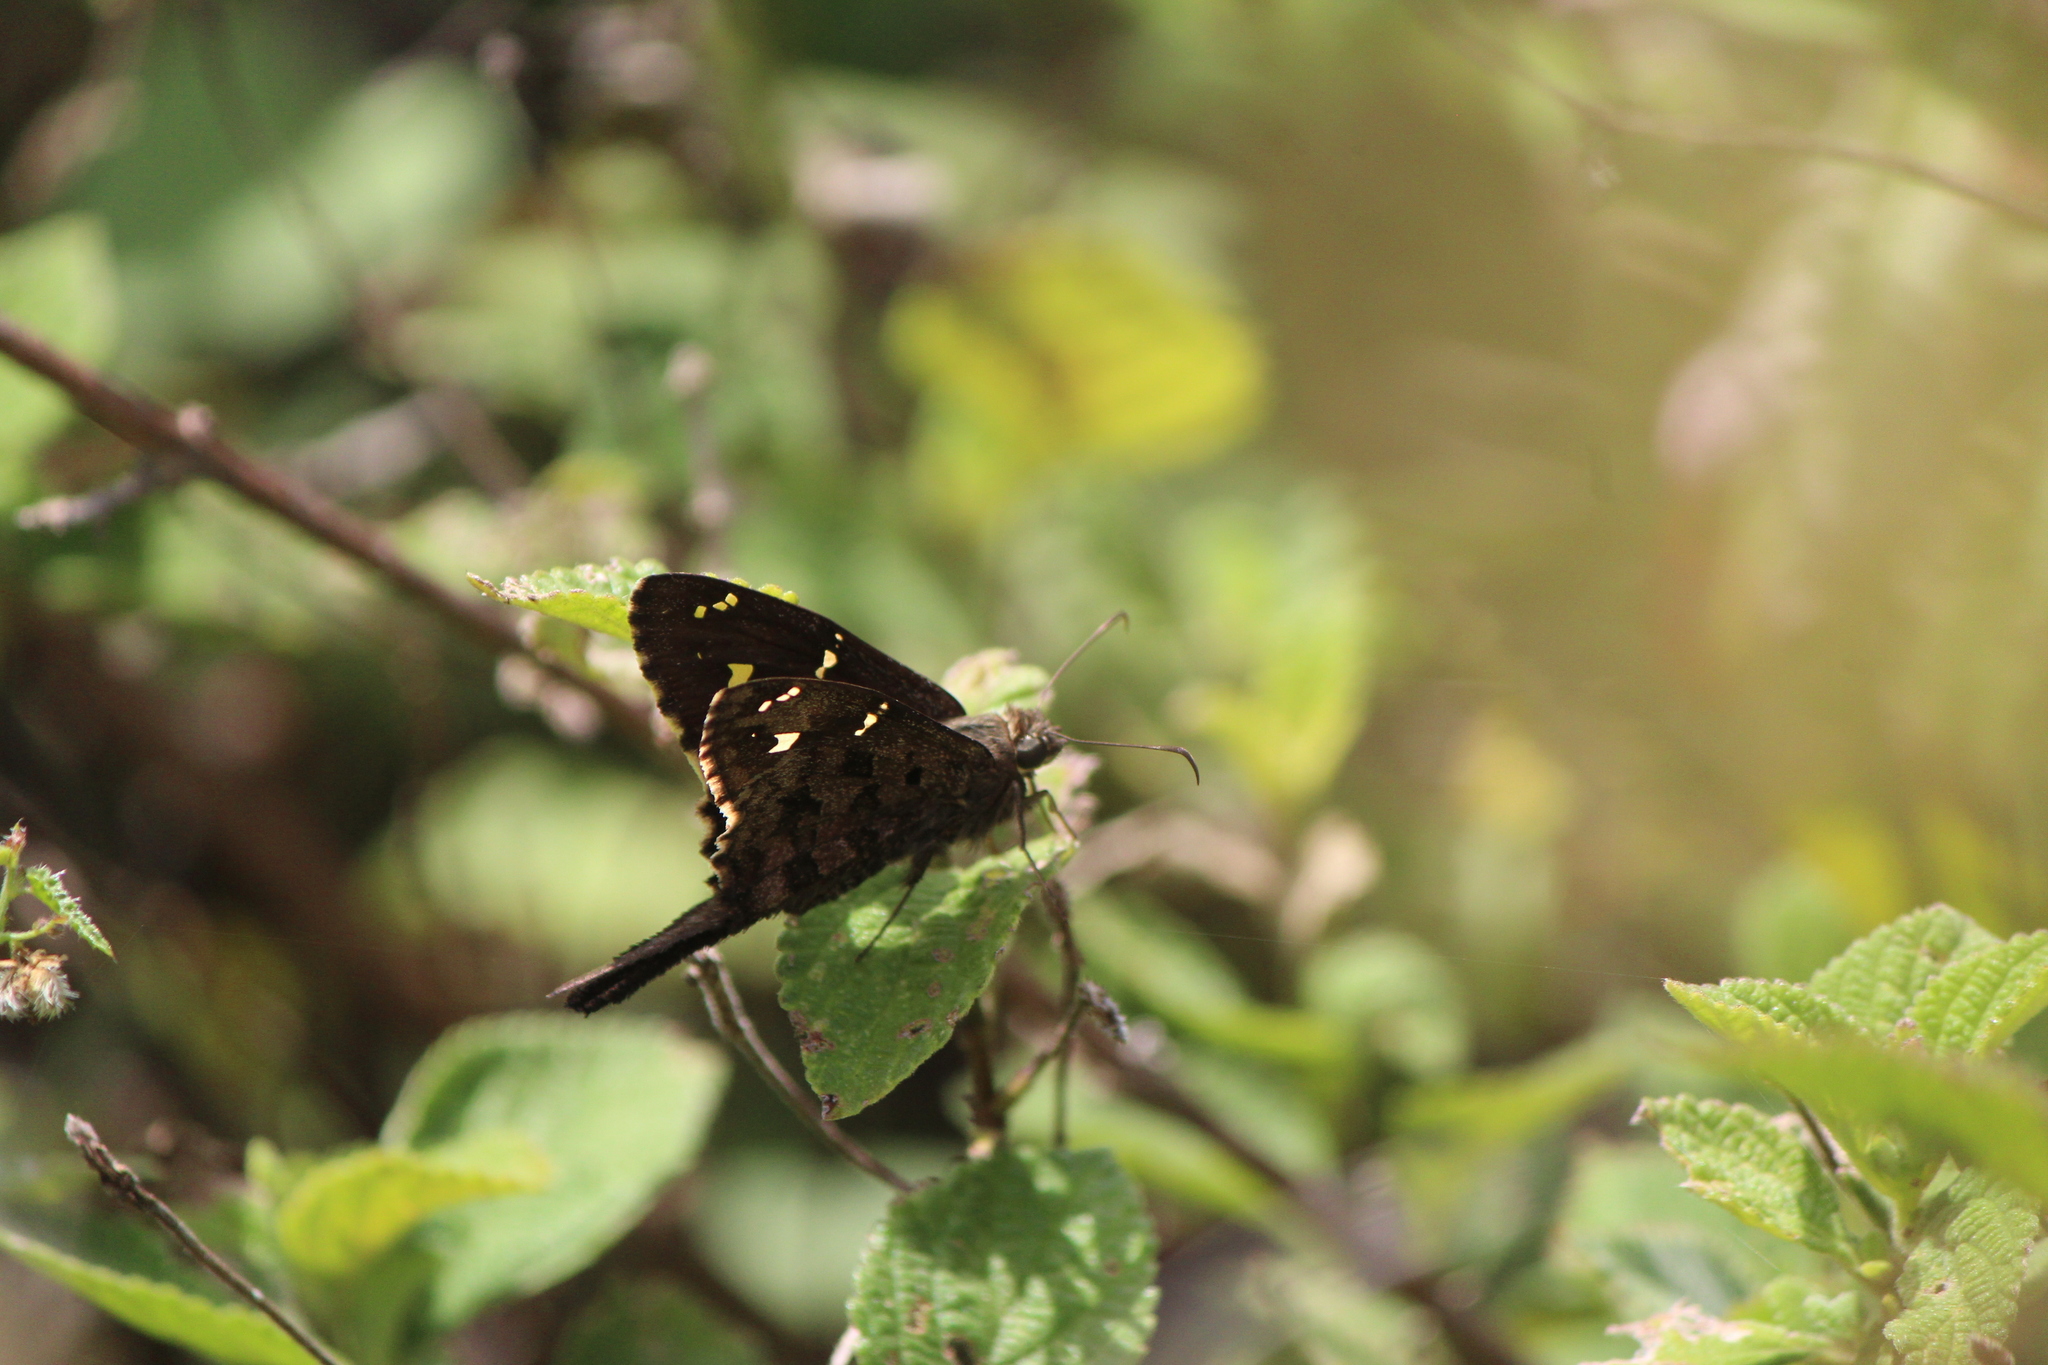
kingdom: Animalia
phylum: Arthropoda
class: Insecta
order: Lepidoptera
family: Hesperiidae
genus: Urbanus
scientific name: Urbanus proteus
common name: Long-tailed skipper
